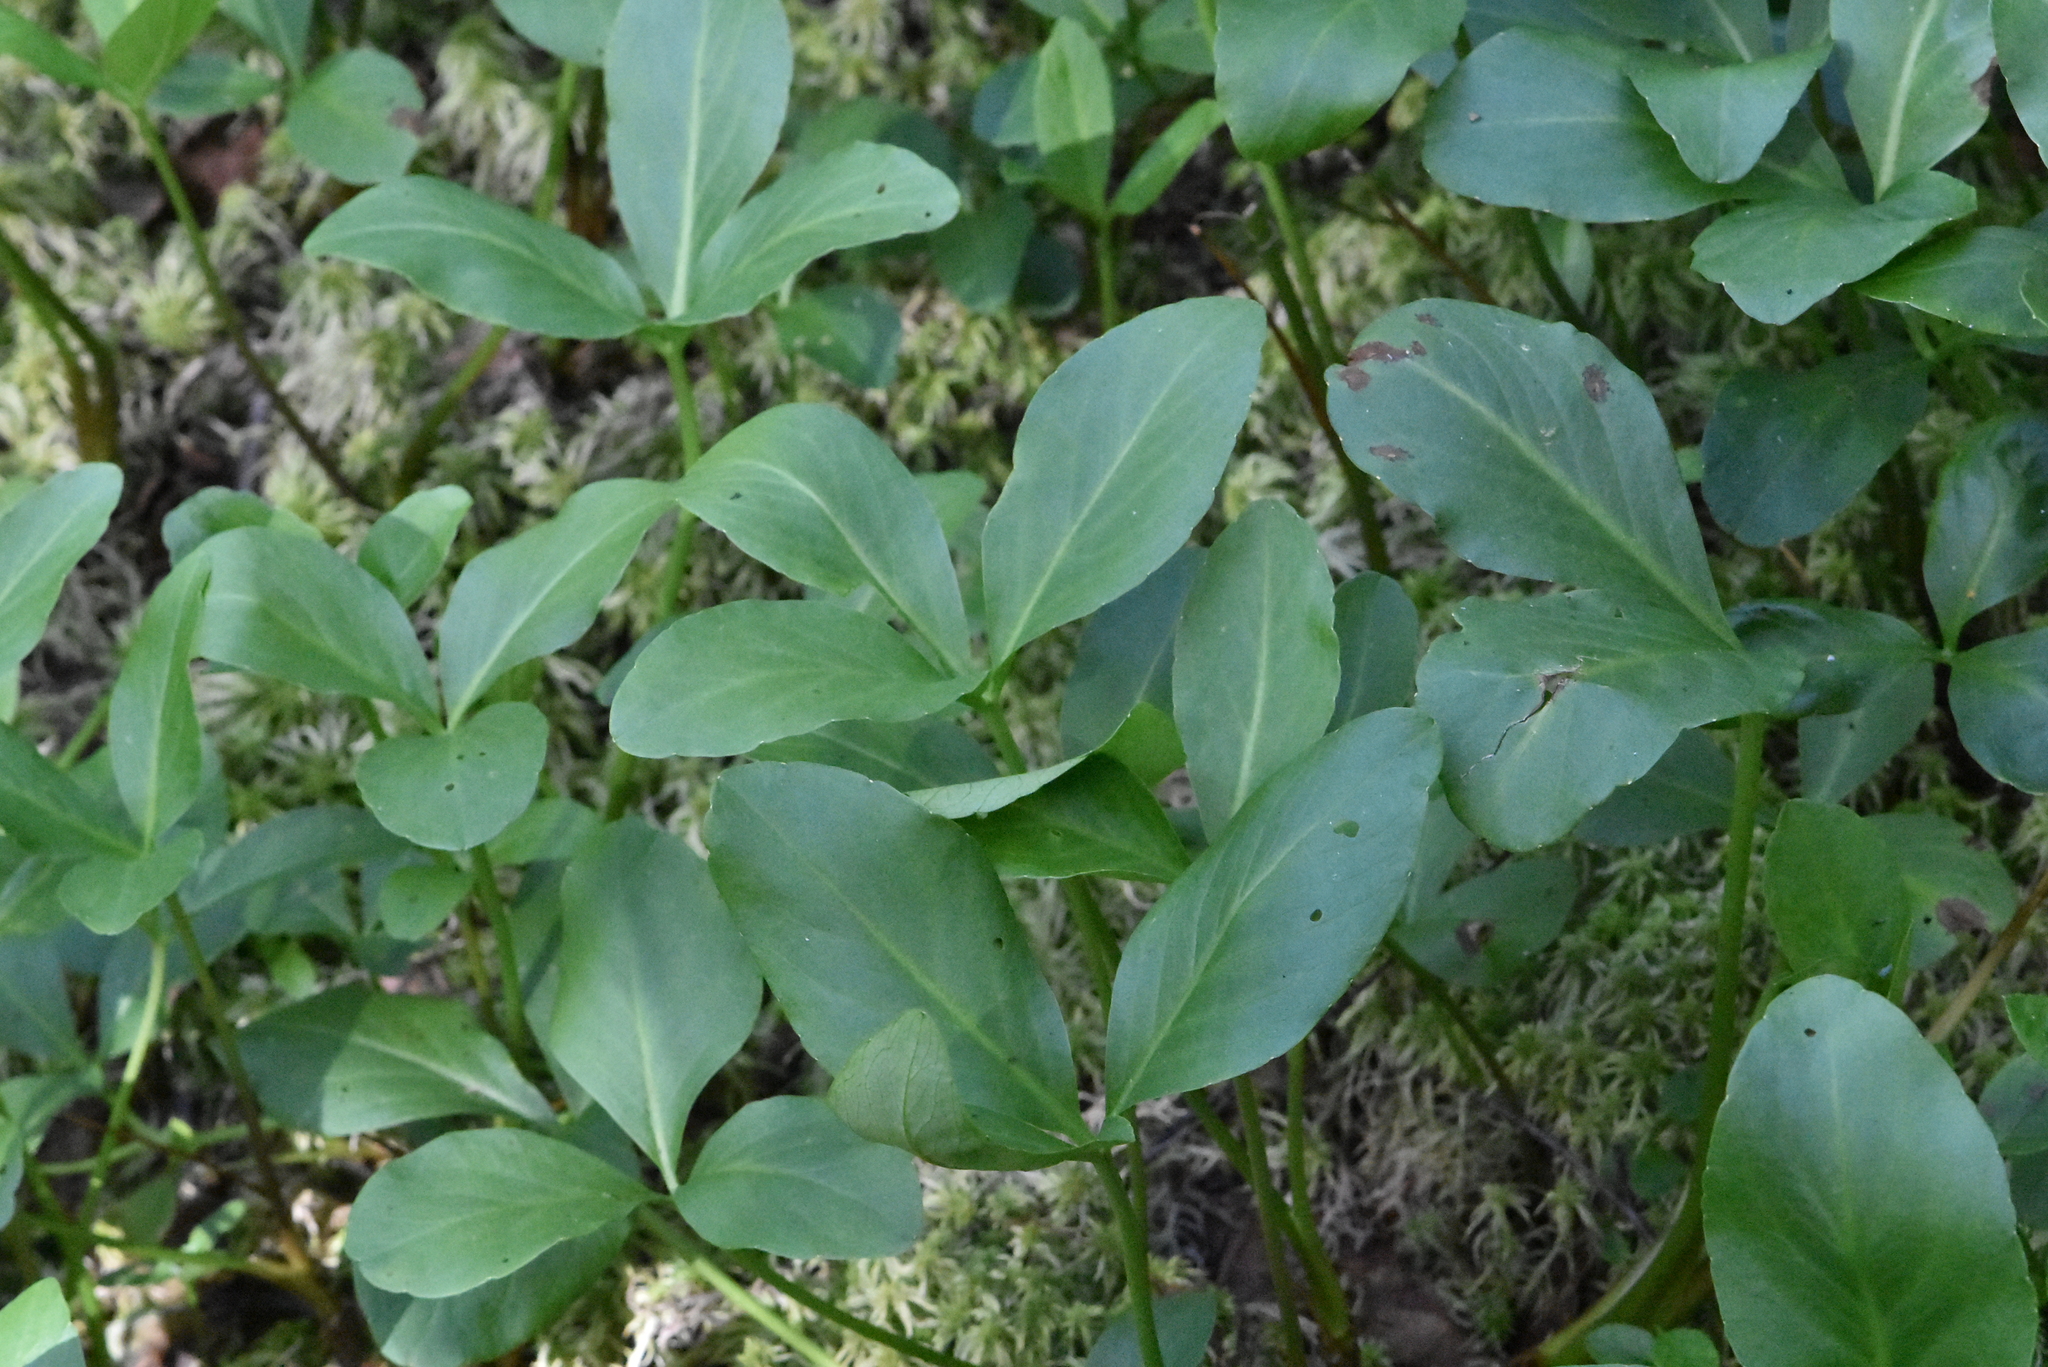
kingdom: Plantae
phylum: Tracheophyta
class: Magnoliopsida
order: Asterales
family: Menyanthaceae
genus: Menyanthes
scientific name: Menyanthes trifoliata
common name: Bogbean
